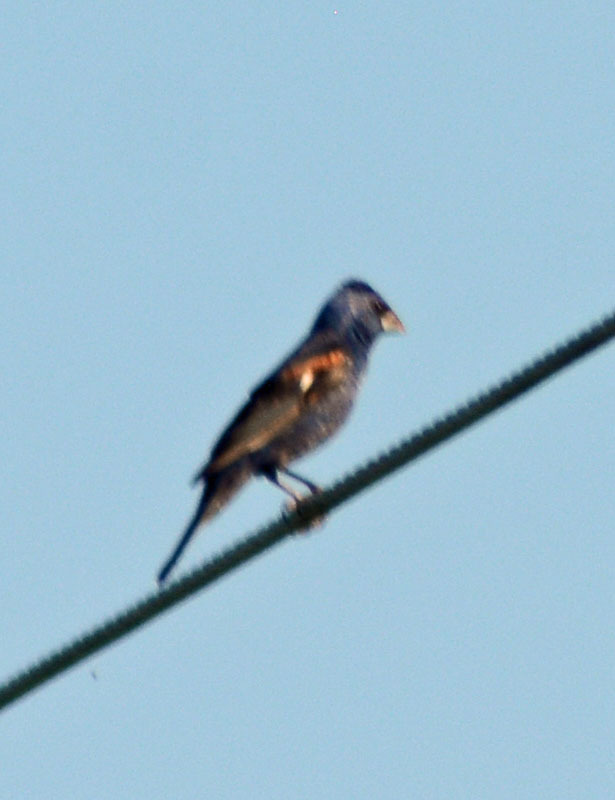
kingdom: Animalia
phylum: Chordata
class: Aves
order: Passeriformes
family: Cardinalidae
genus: Passerina
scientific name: Passerina caerulea
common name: Blue grosbeak
